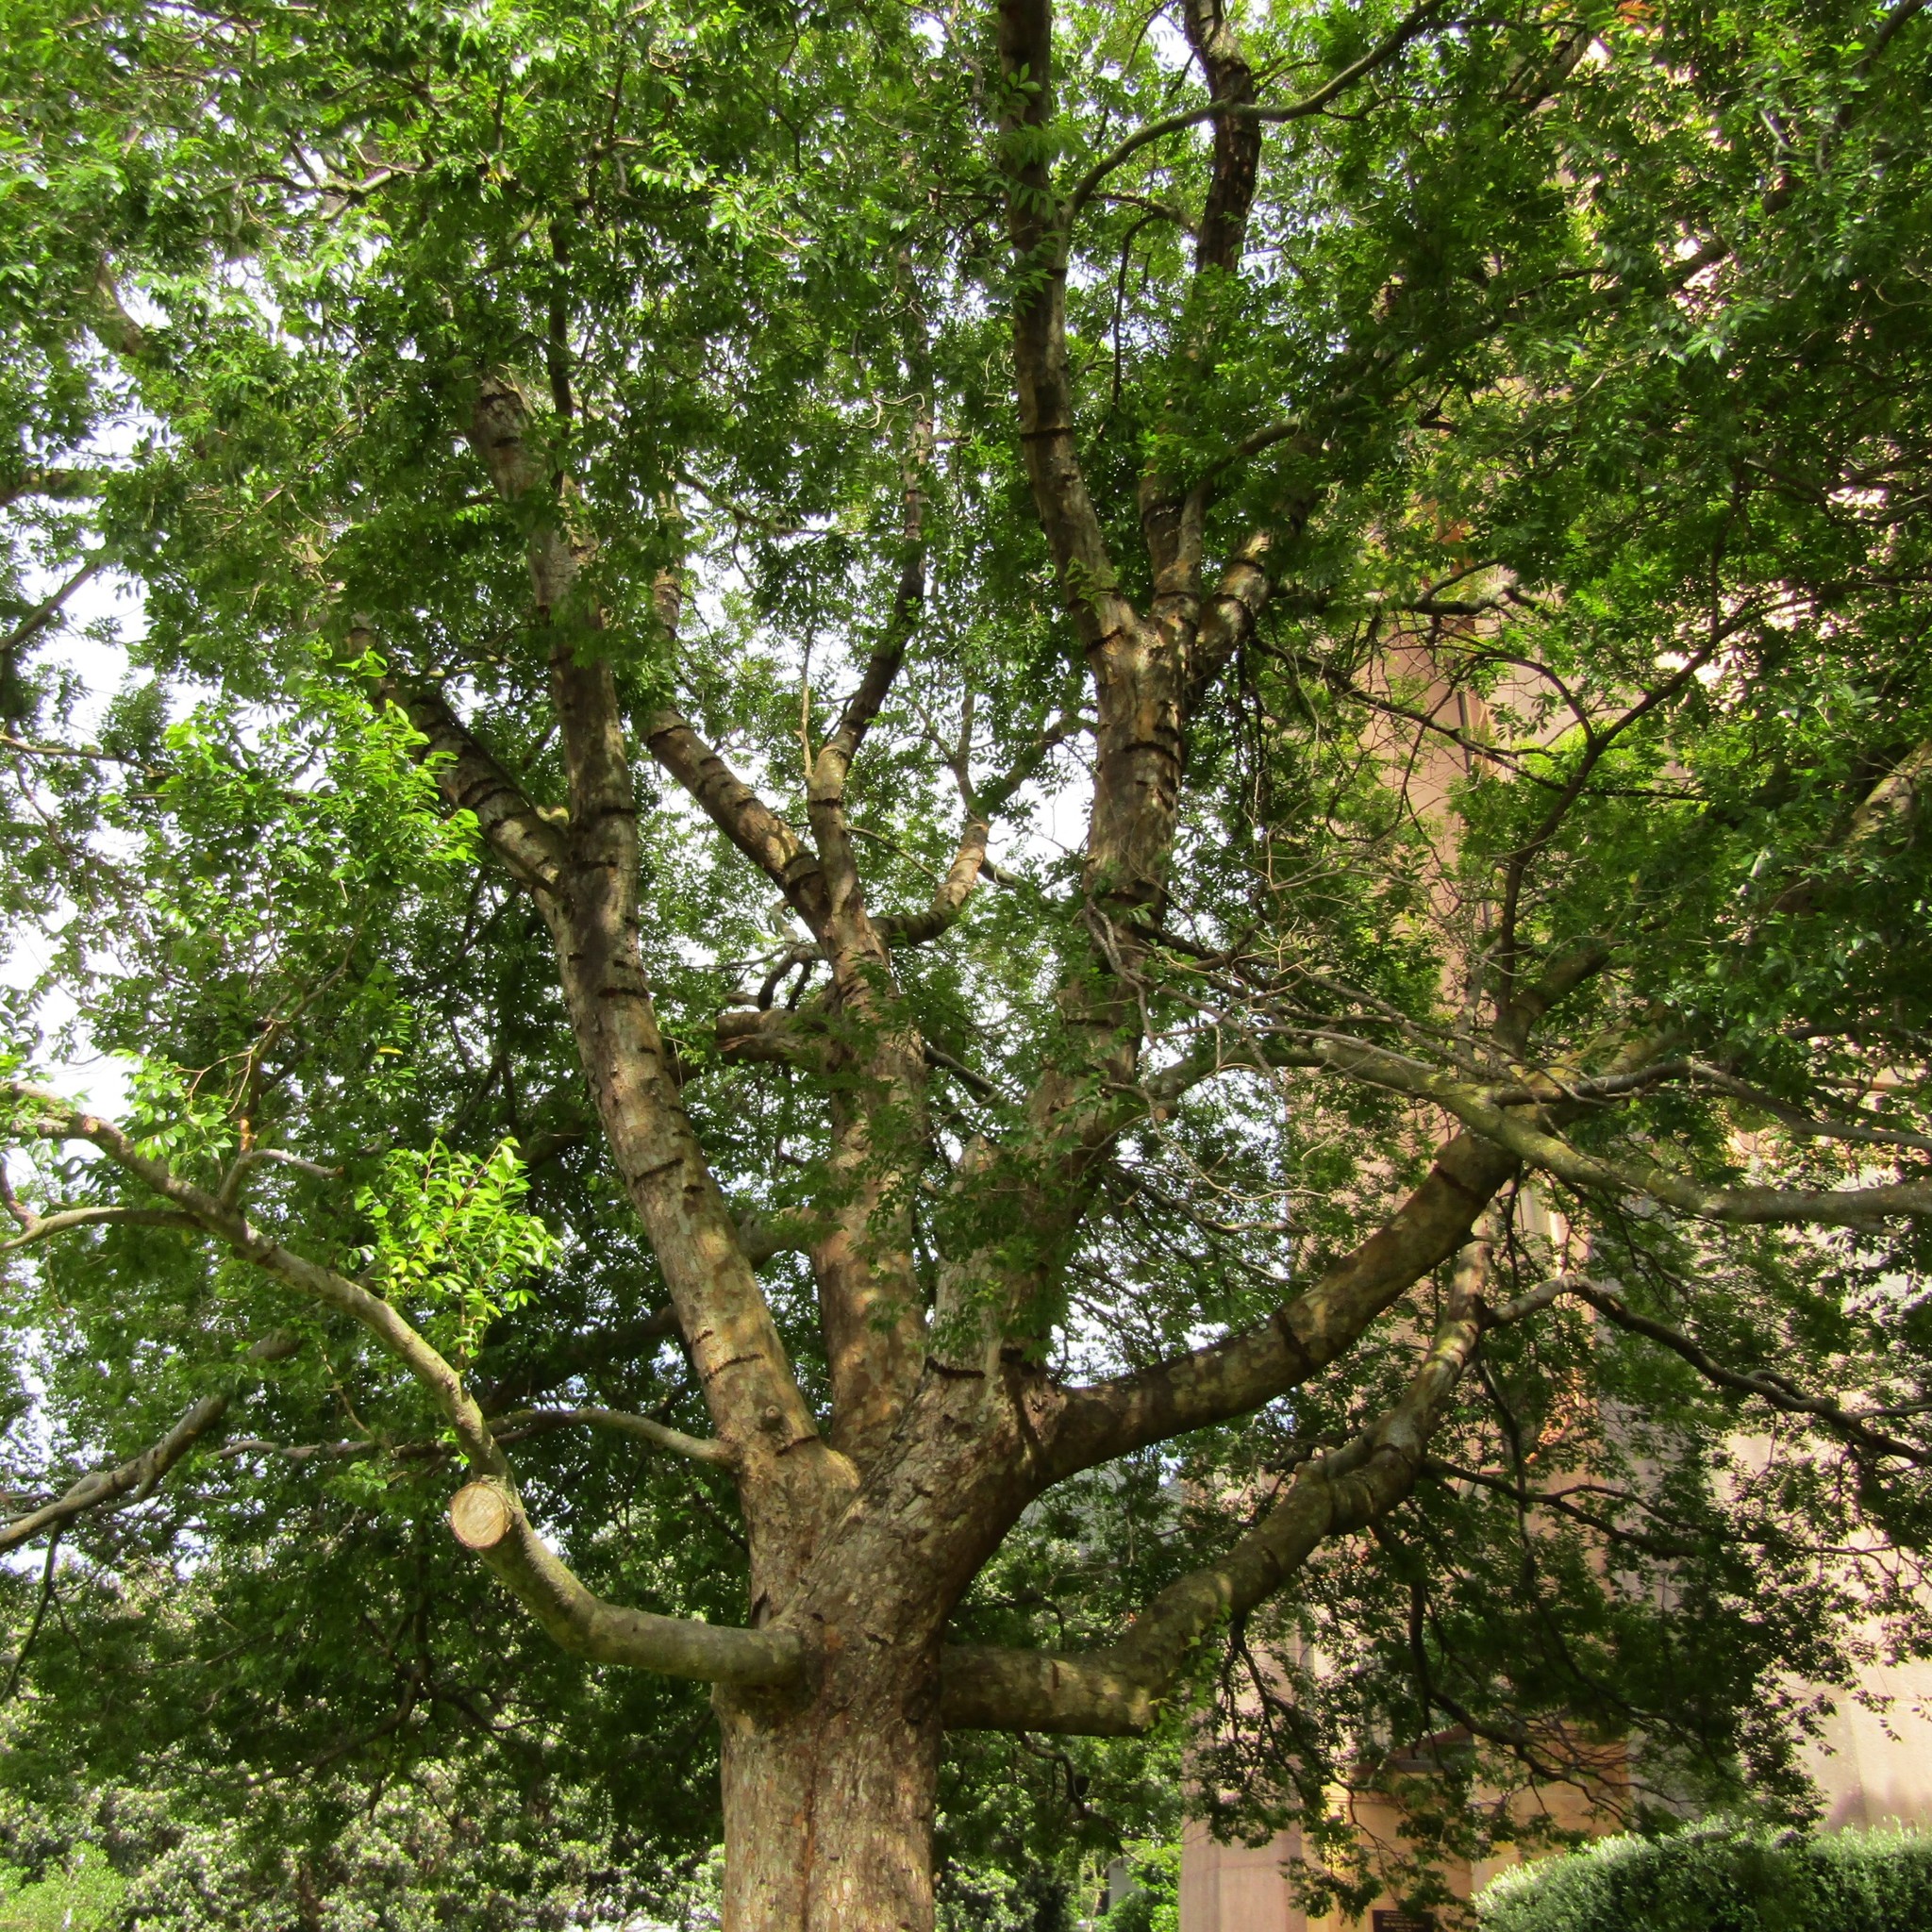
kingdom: Animalia
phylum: Chordata
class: Aves
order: Psittaciformes
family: Psittacidae
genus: Nestor
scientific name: Nestor meridionalis
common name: New zealand kaka
